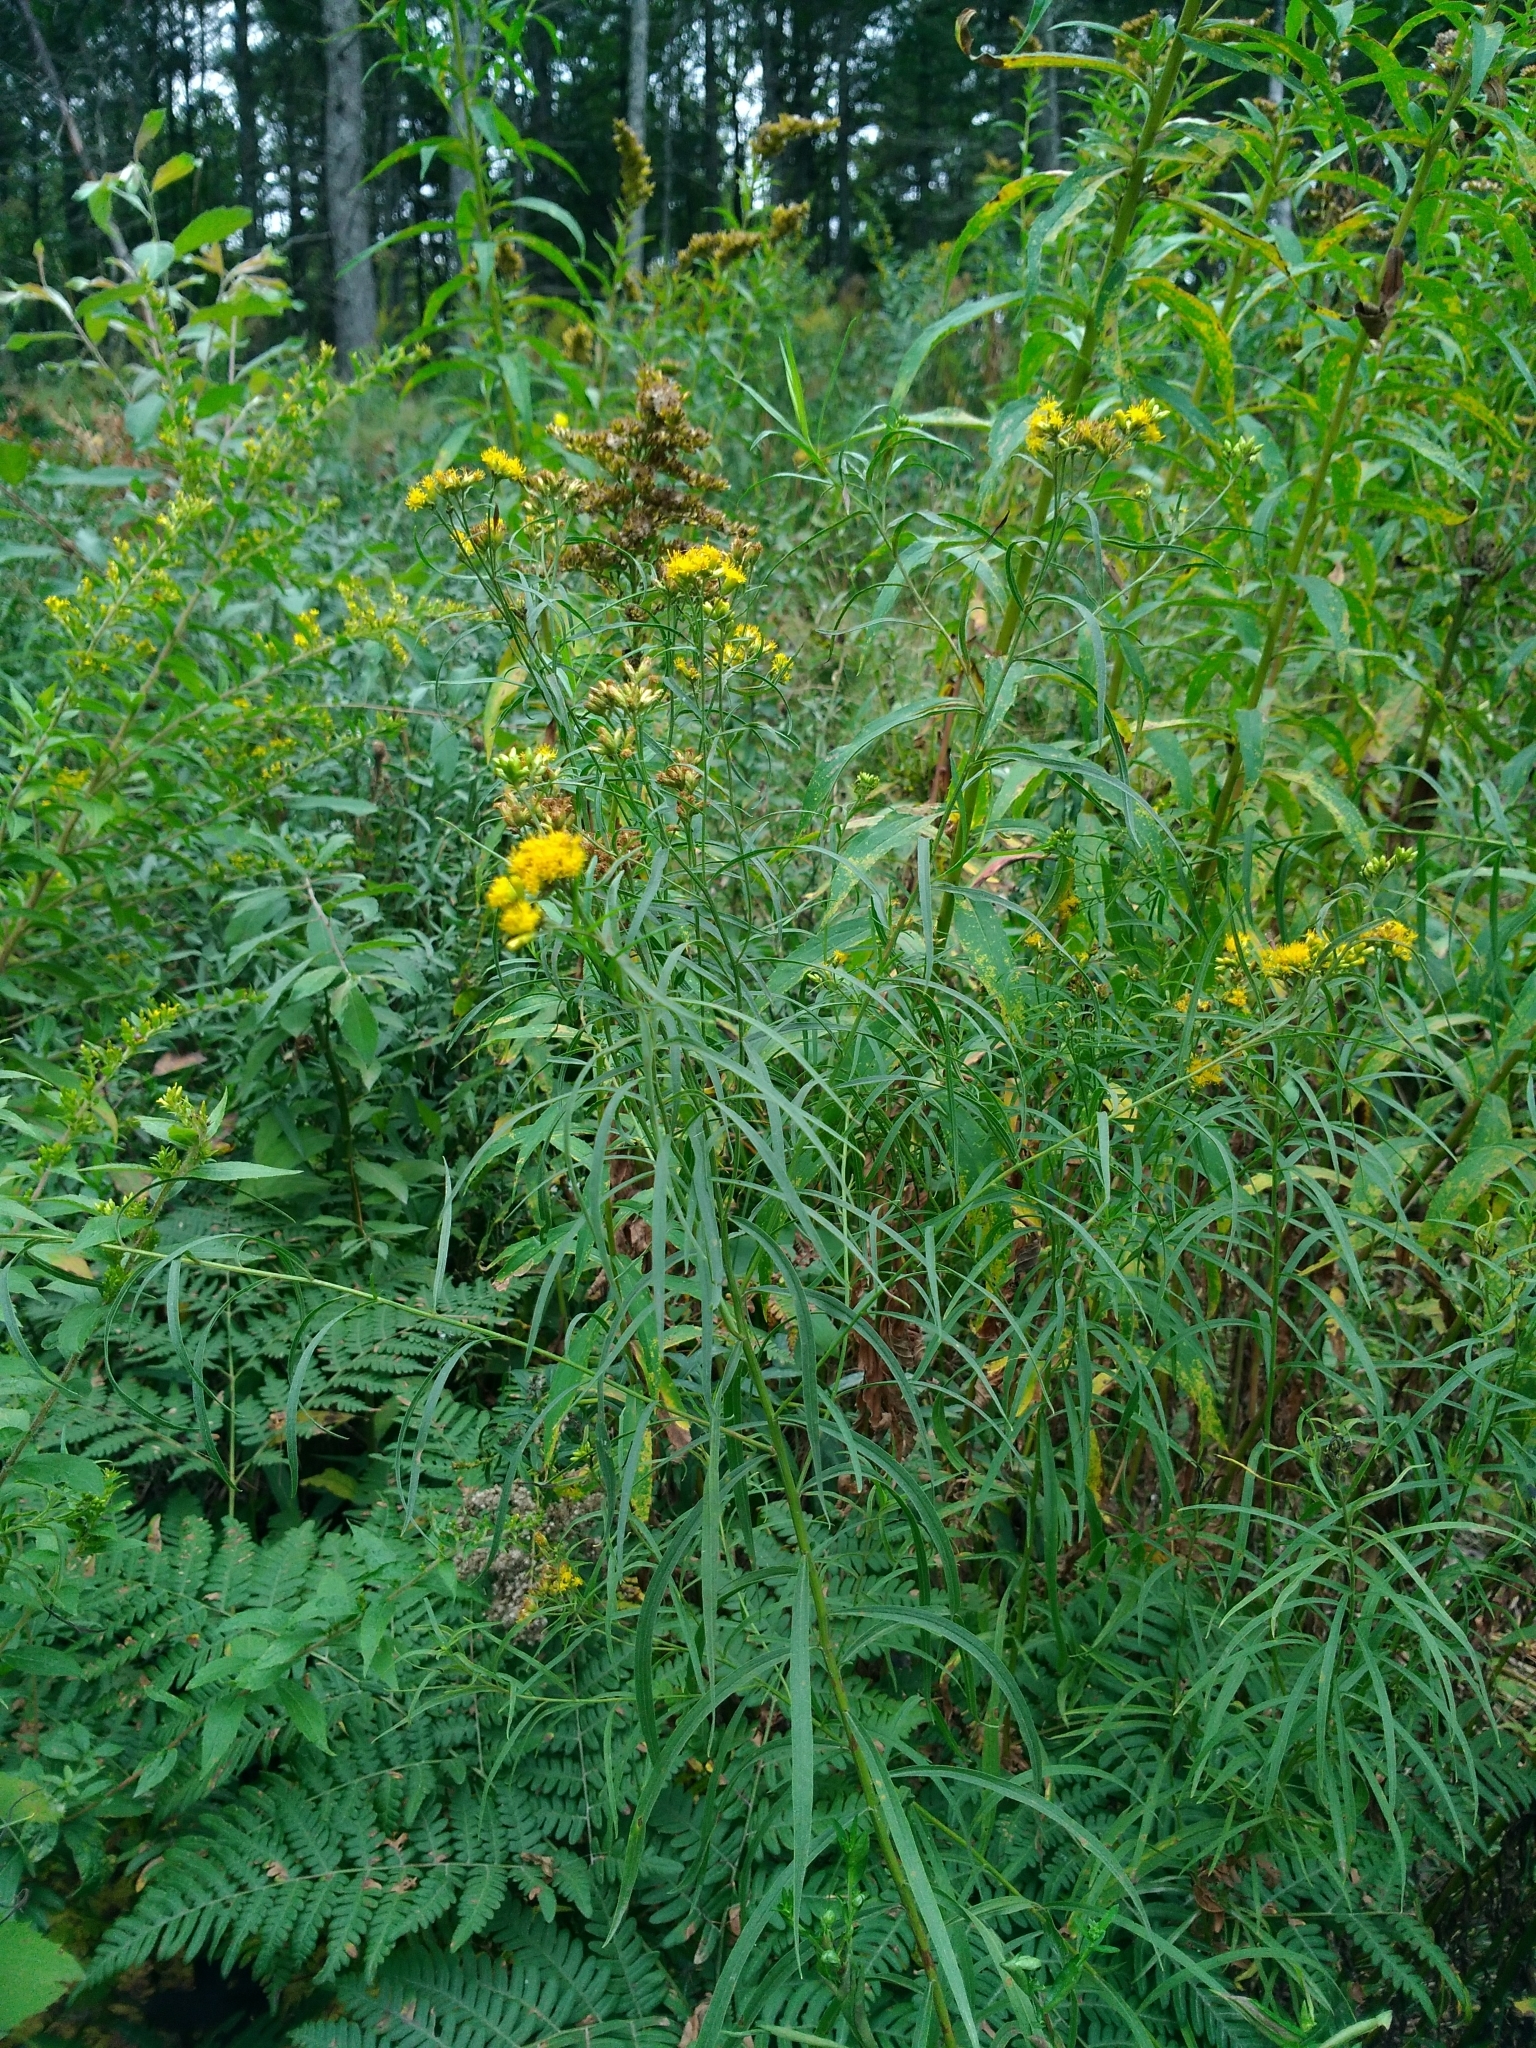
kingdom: Plantae
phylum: Tracheophyta
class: Magnoliopsida
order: Asterales
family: Asteraceae
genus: Euthamia
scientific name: Euthamia graminifolia
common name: Common goldentop
